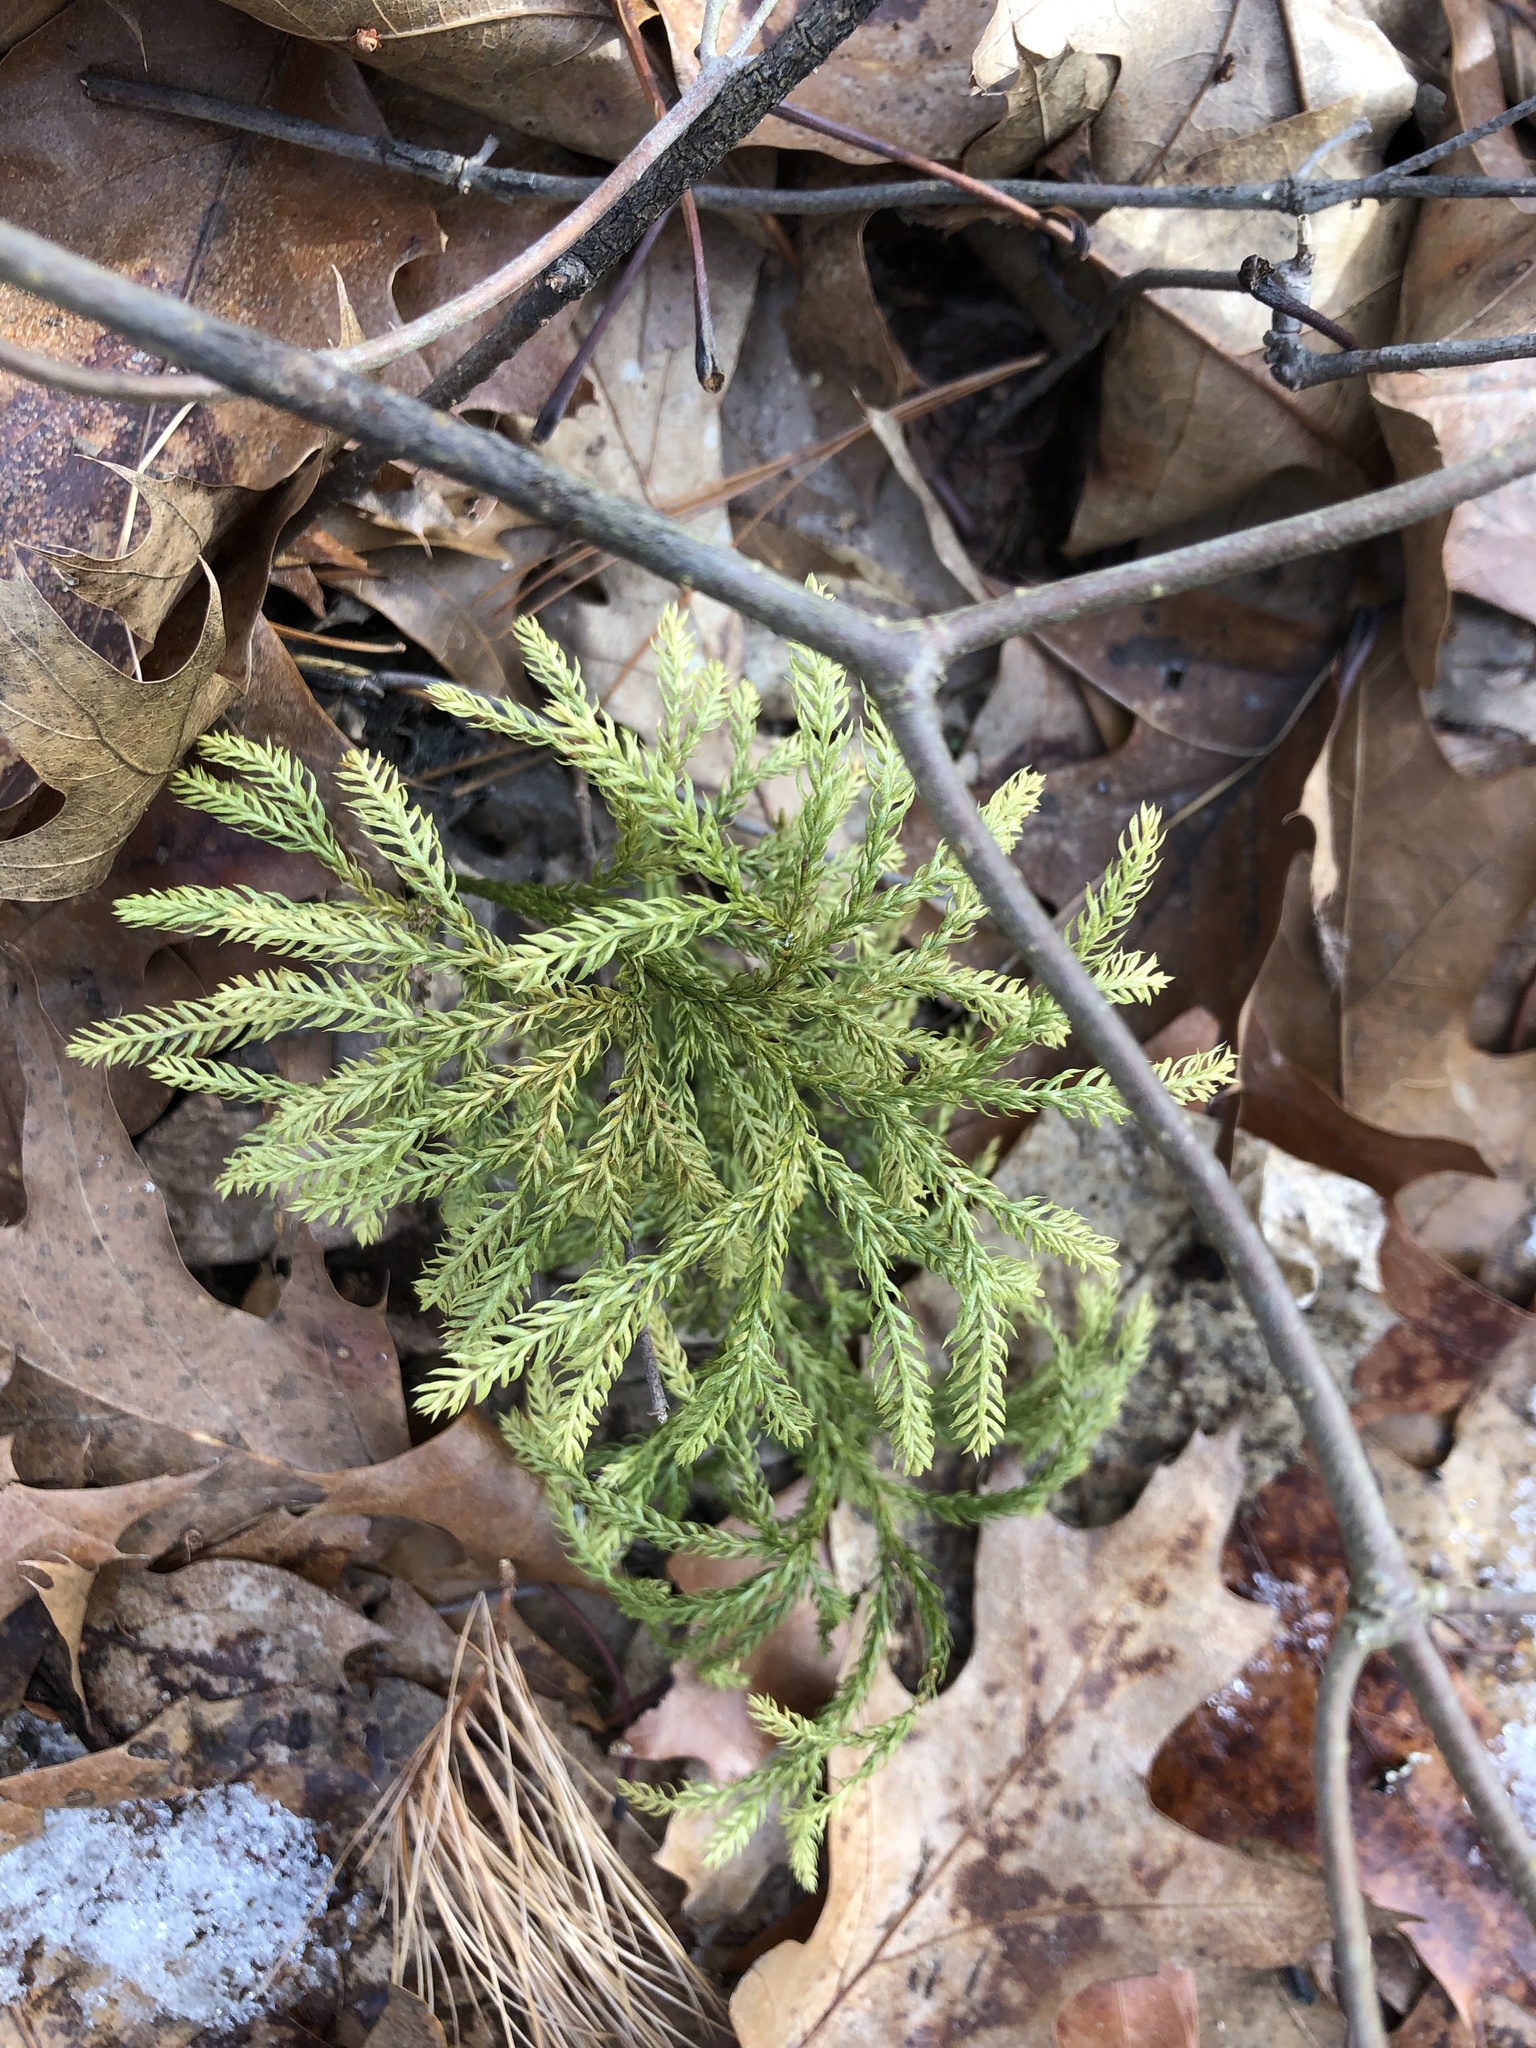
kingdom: Plantae
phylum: Tracheophyta
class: Lycopodiopsida
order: Lycopodiales
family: Lycopodiaceae
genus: Dendrolycopodium
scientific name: Dendrolycopodium obscurum
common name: Common ground-pine
